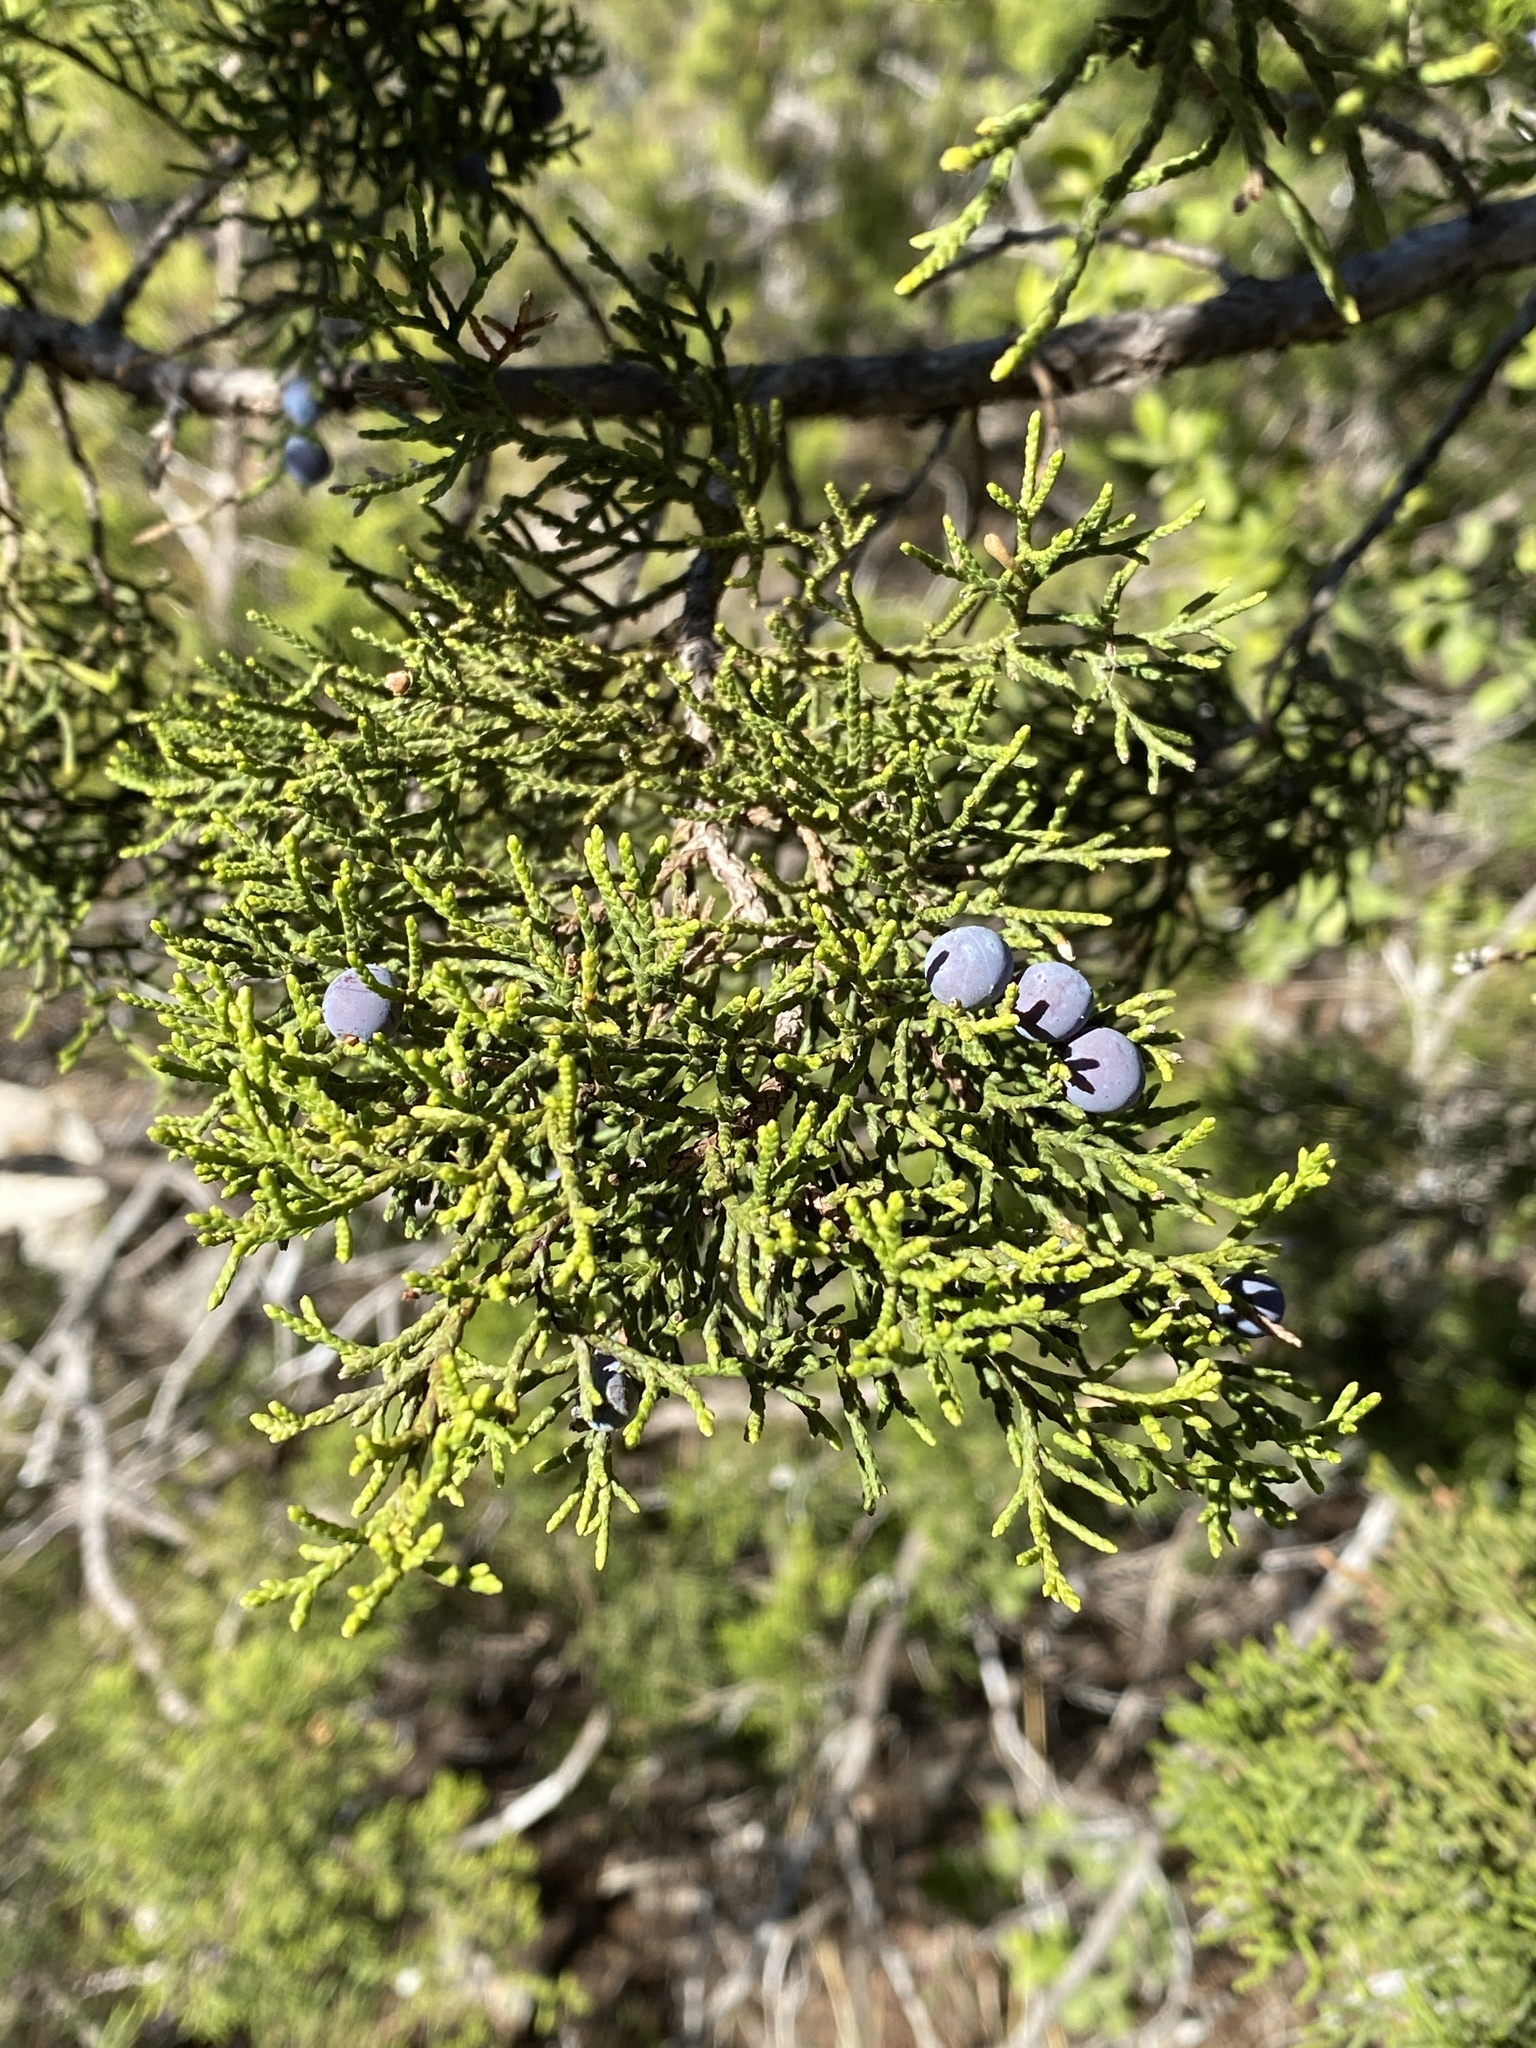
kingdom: Plantae
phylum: Tracheophyta
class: Pinopsida
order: Pinales
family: Cupressaceae
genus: Juniperus
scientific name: Juniperus ashei
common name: Mexican juniper
